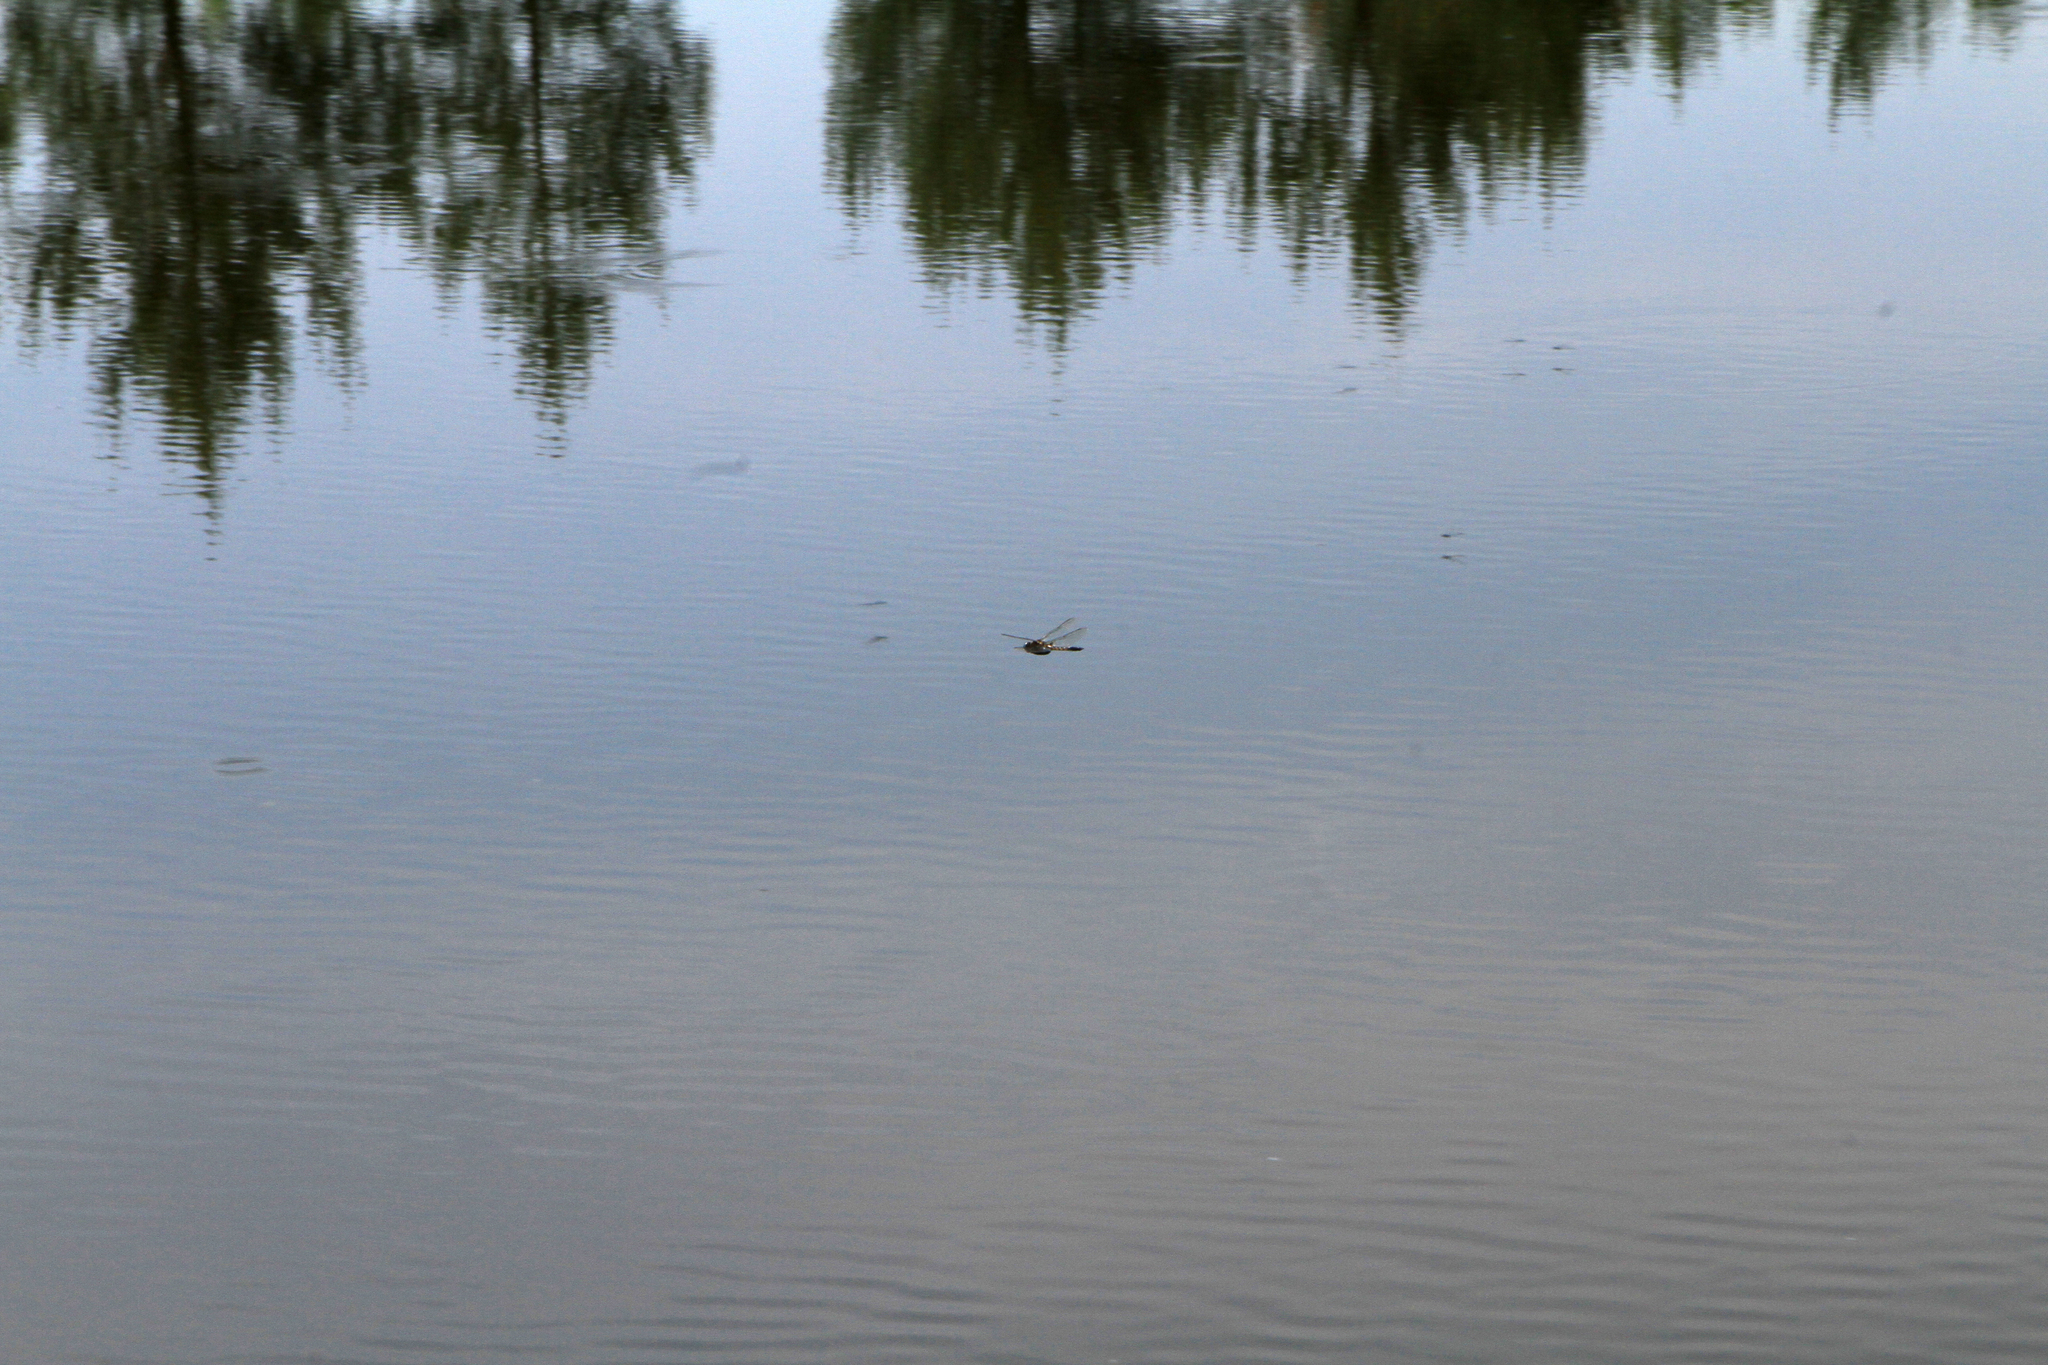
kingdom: Animalia
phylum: Arthropoda
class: Insecta
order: Odonata
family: Corduliidae
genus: Epitheca
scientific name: Epitheca bimaculata
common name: Eurasian baskettail
